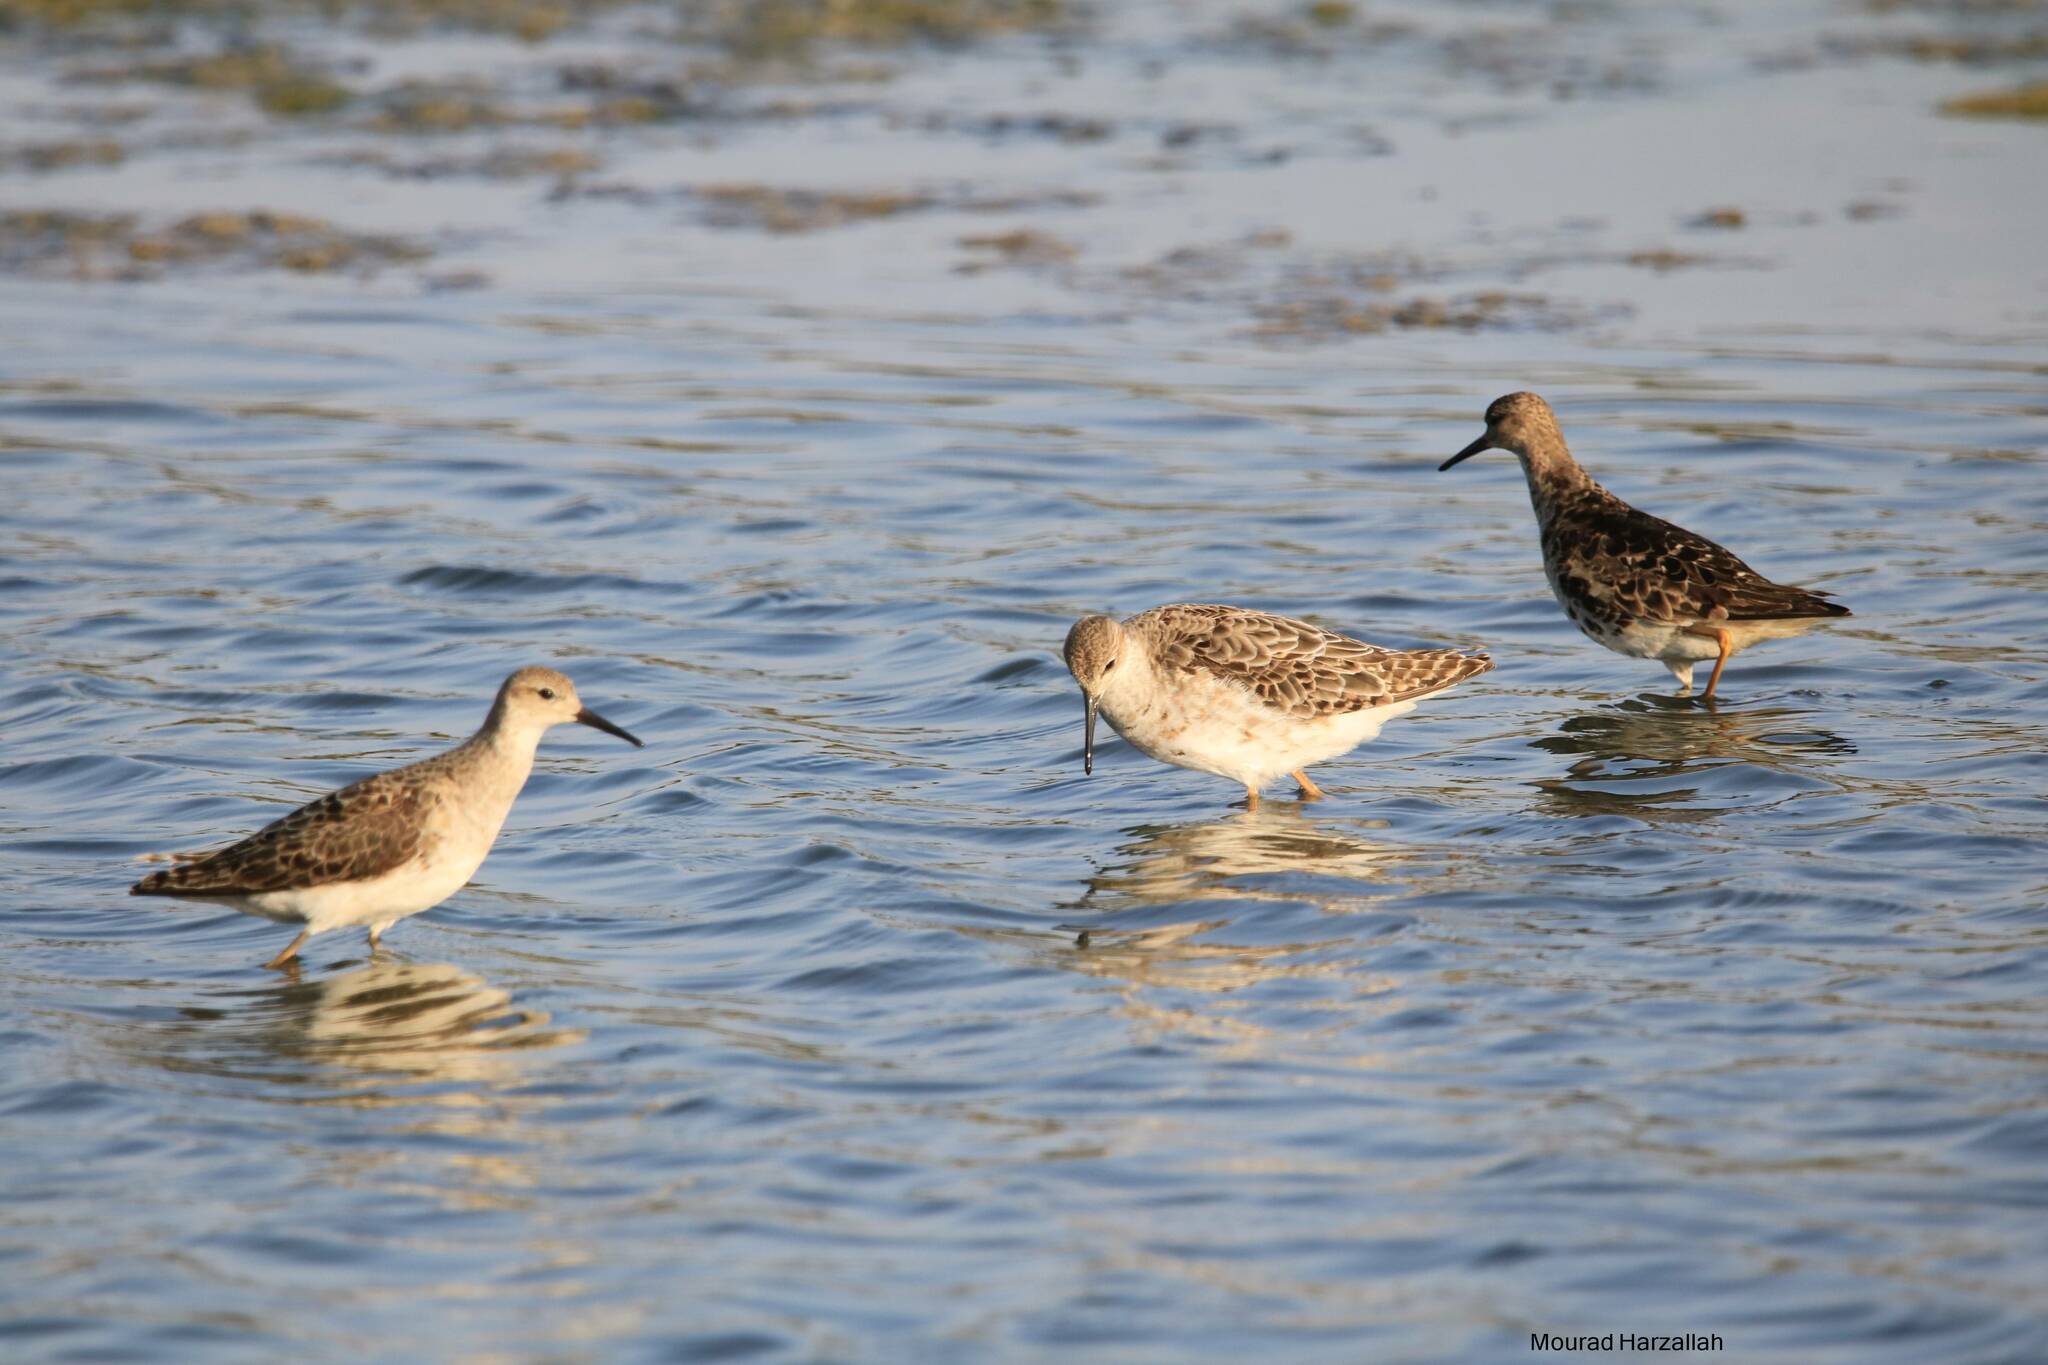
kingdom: Animalia
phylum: Chordata
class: Aves
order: Charadriiformes
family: Scolopacidae
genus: Calidris
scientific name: Calidris pugnax
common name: Ruff
